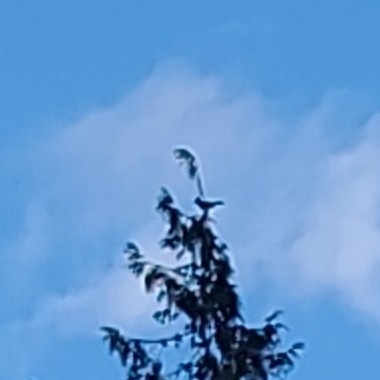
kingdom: Animalia
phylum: Chordata
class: Aves
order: Passeriformes
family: Corvidae
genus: Cyanocitta
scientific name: Cyanocitta stelleri
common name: Steller's jay
